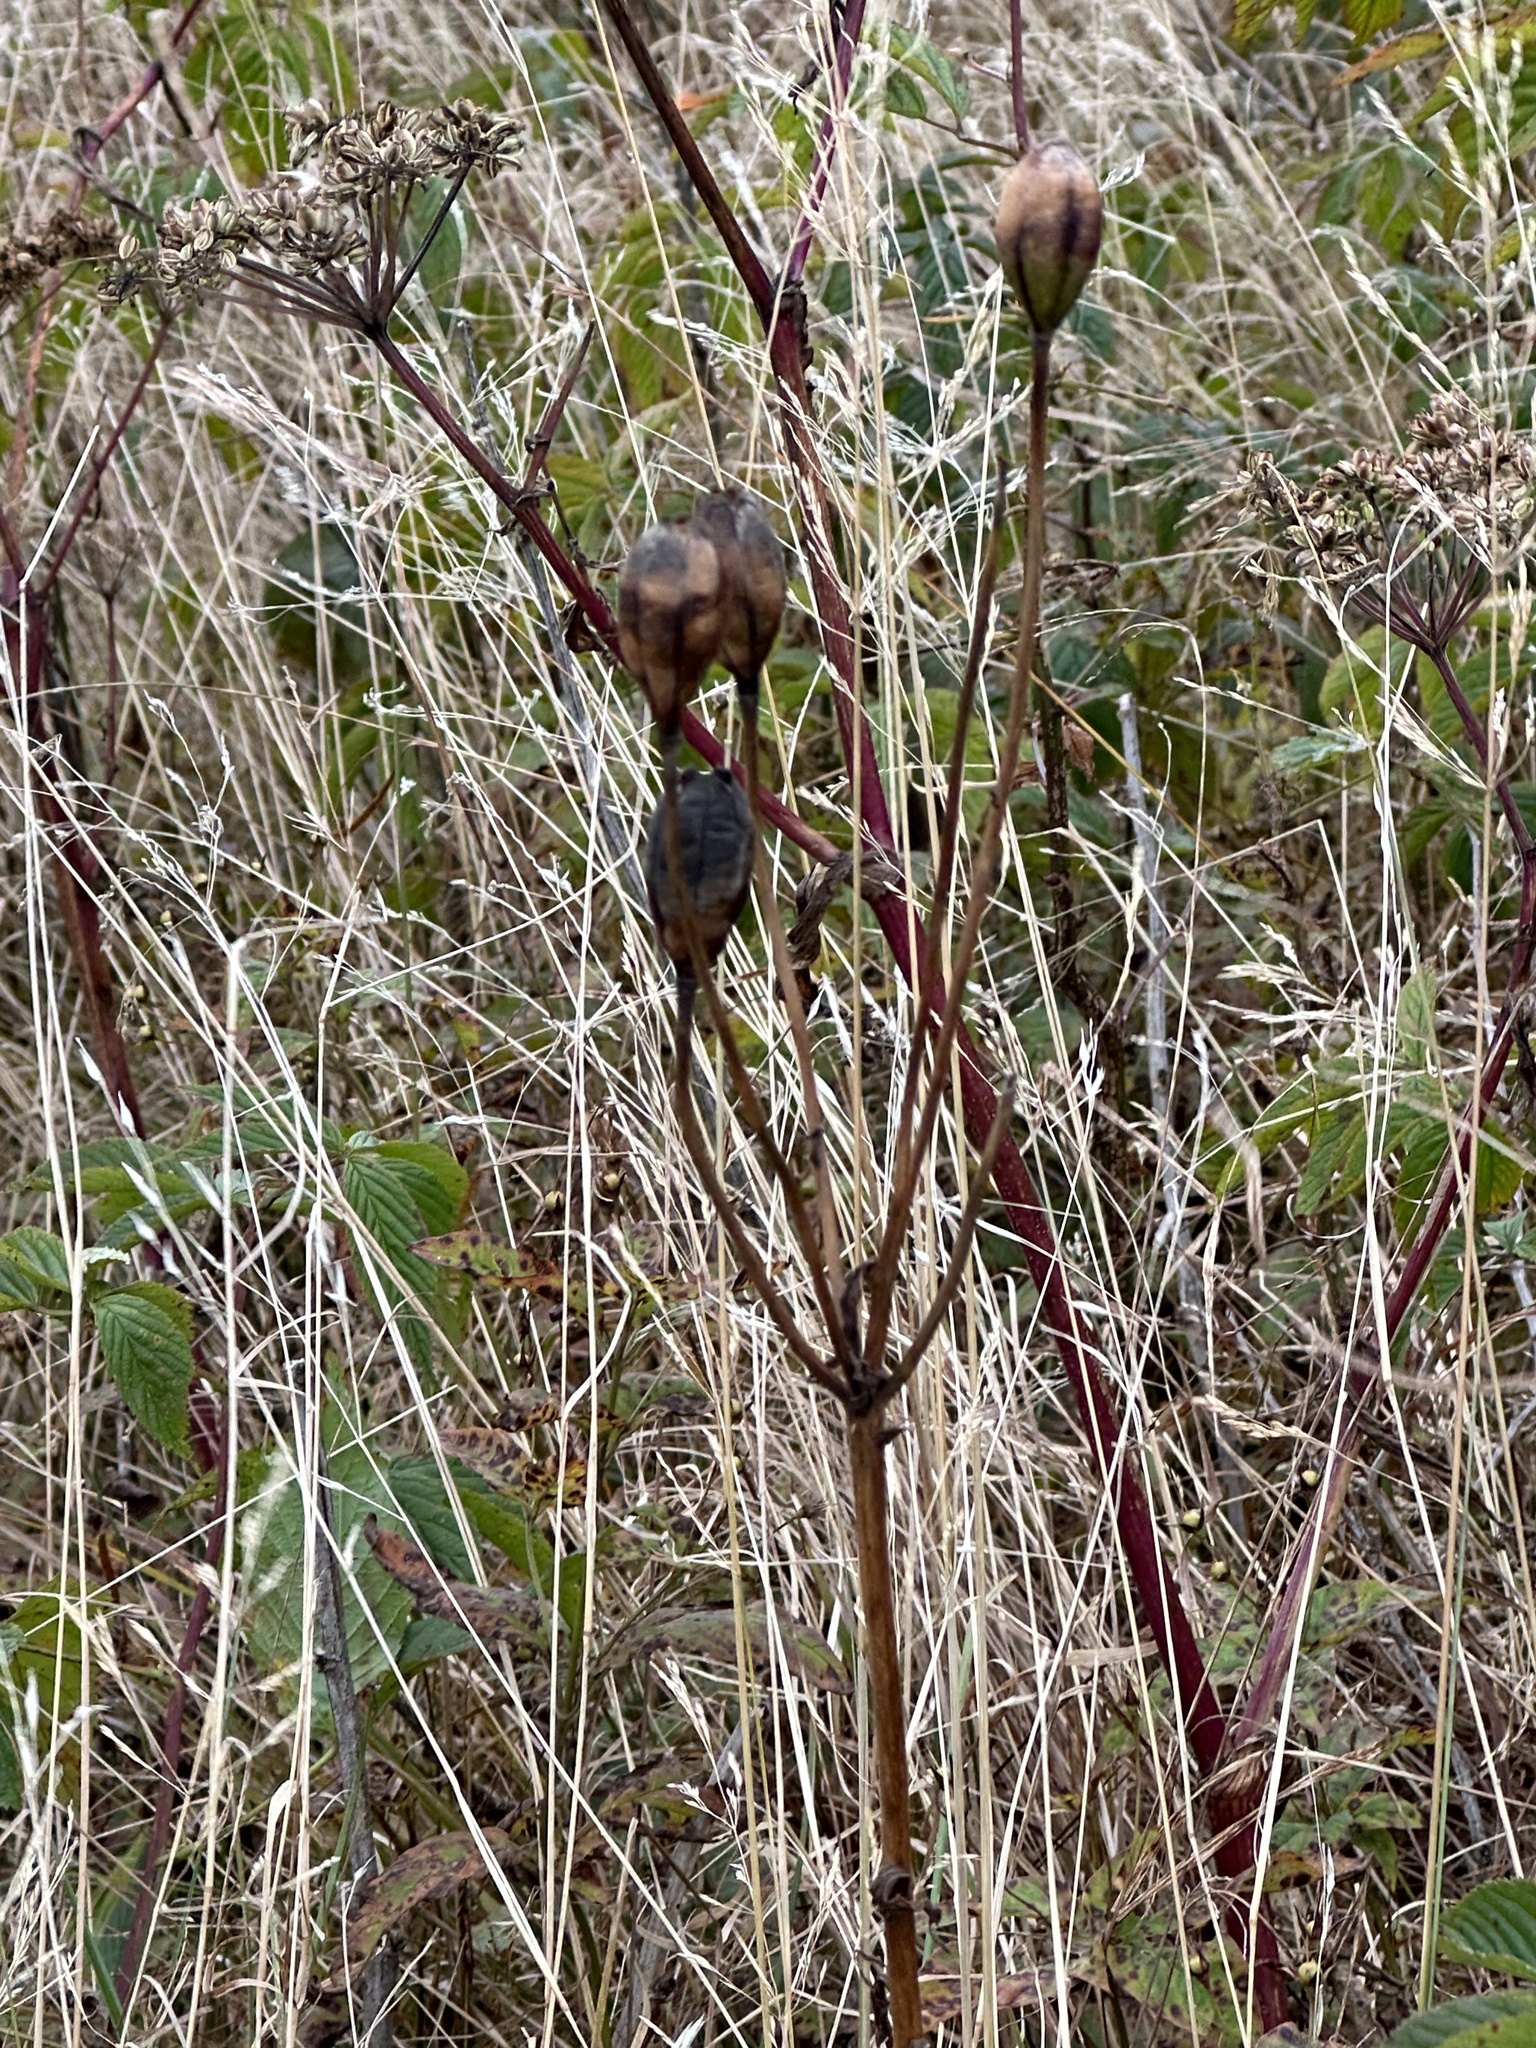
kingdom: Plantae
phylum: Tracheophyta
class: Liliopsida
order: Liliales
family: Liliaceae
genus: Lilium
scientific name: Lilium grayi
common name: Gray's lily
